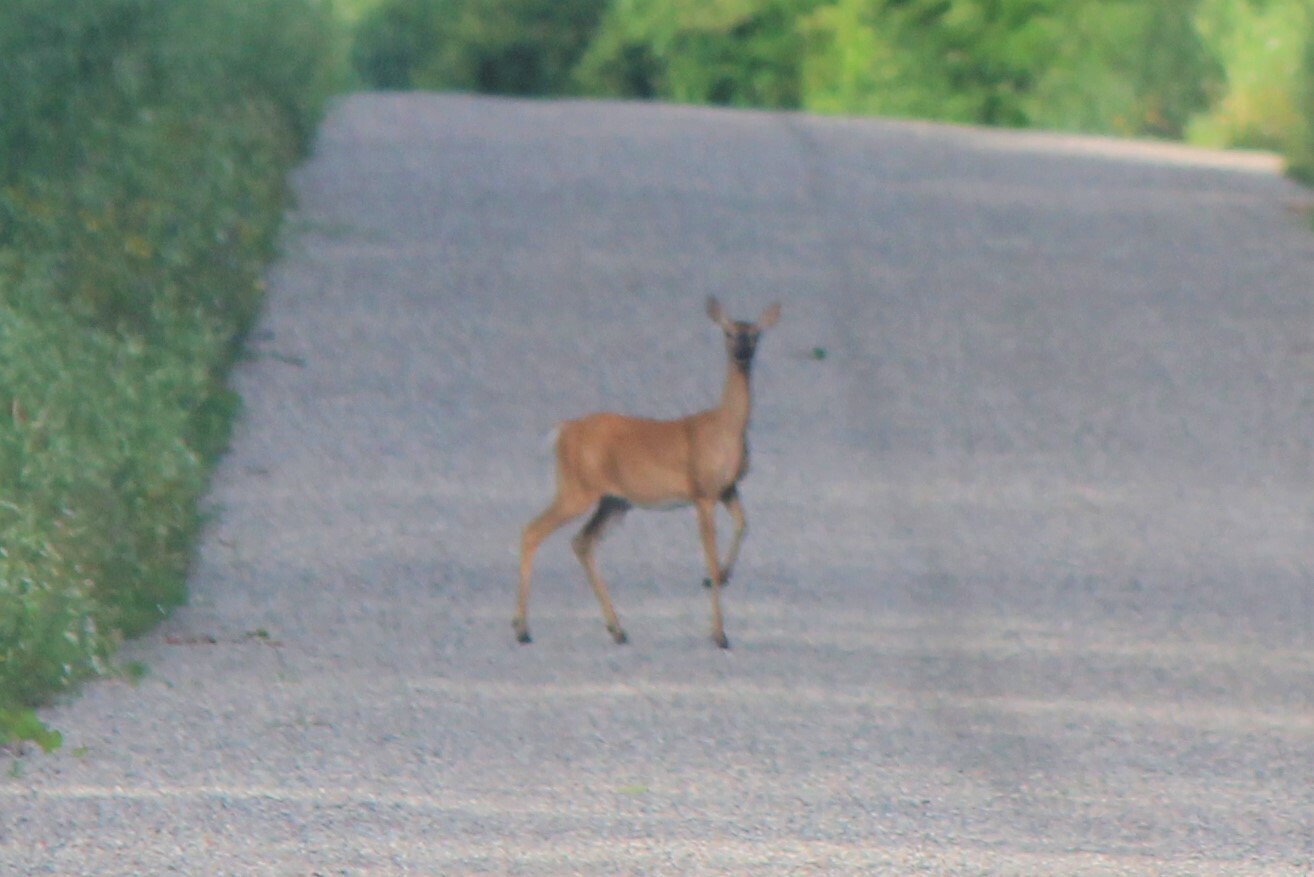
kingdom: Animalia
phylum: Chordata
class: Mammalia
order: Artiodactyla
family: Cervidae
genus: Odocoileus
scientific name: Odocoileus virginianus
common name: White-tailed deer
